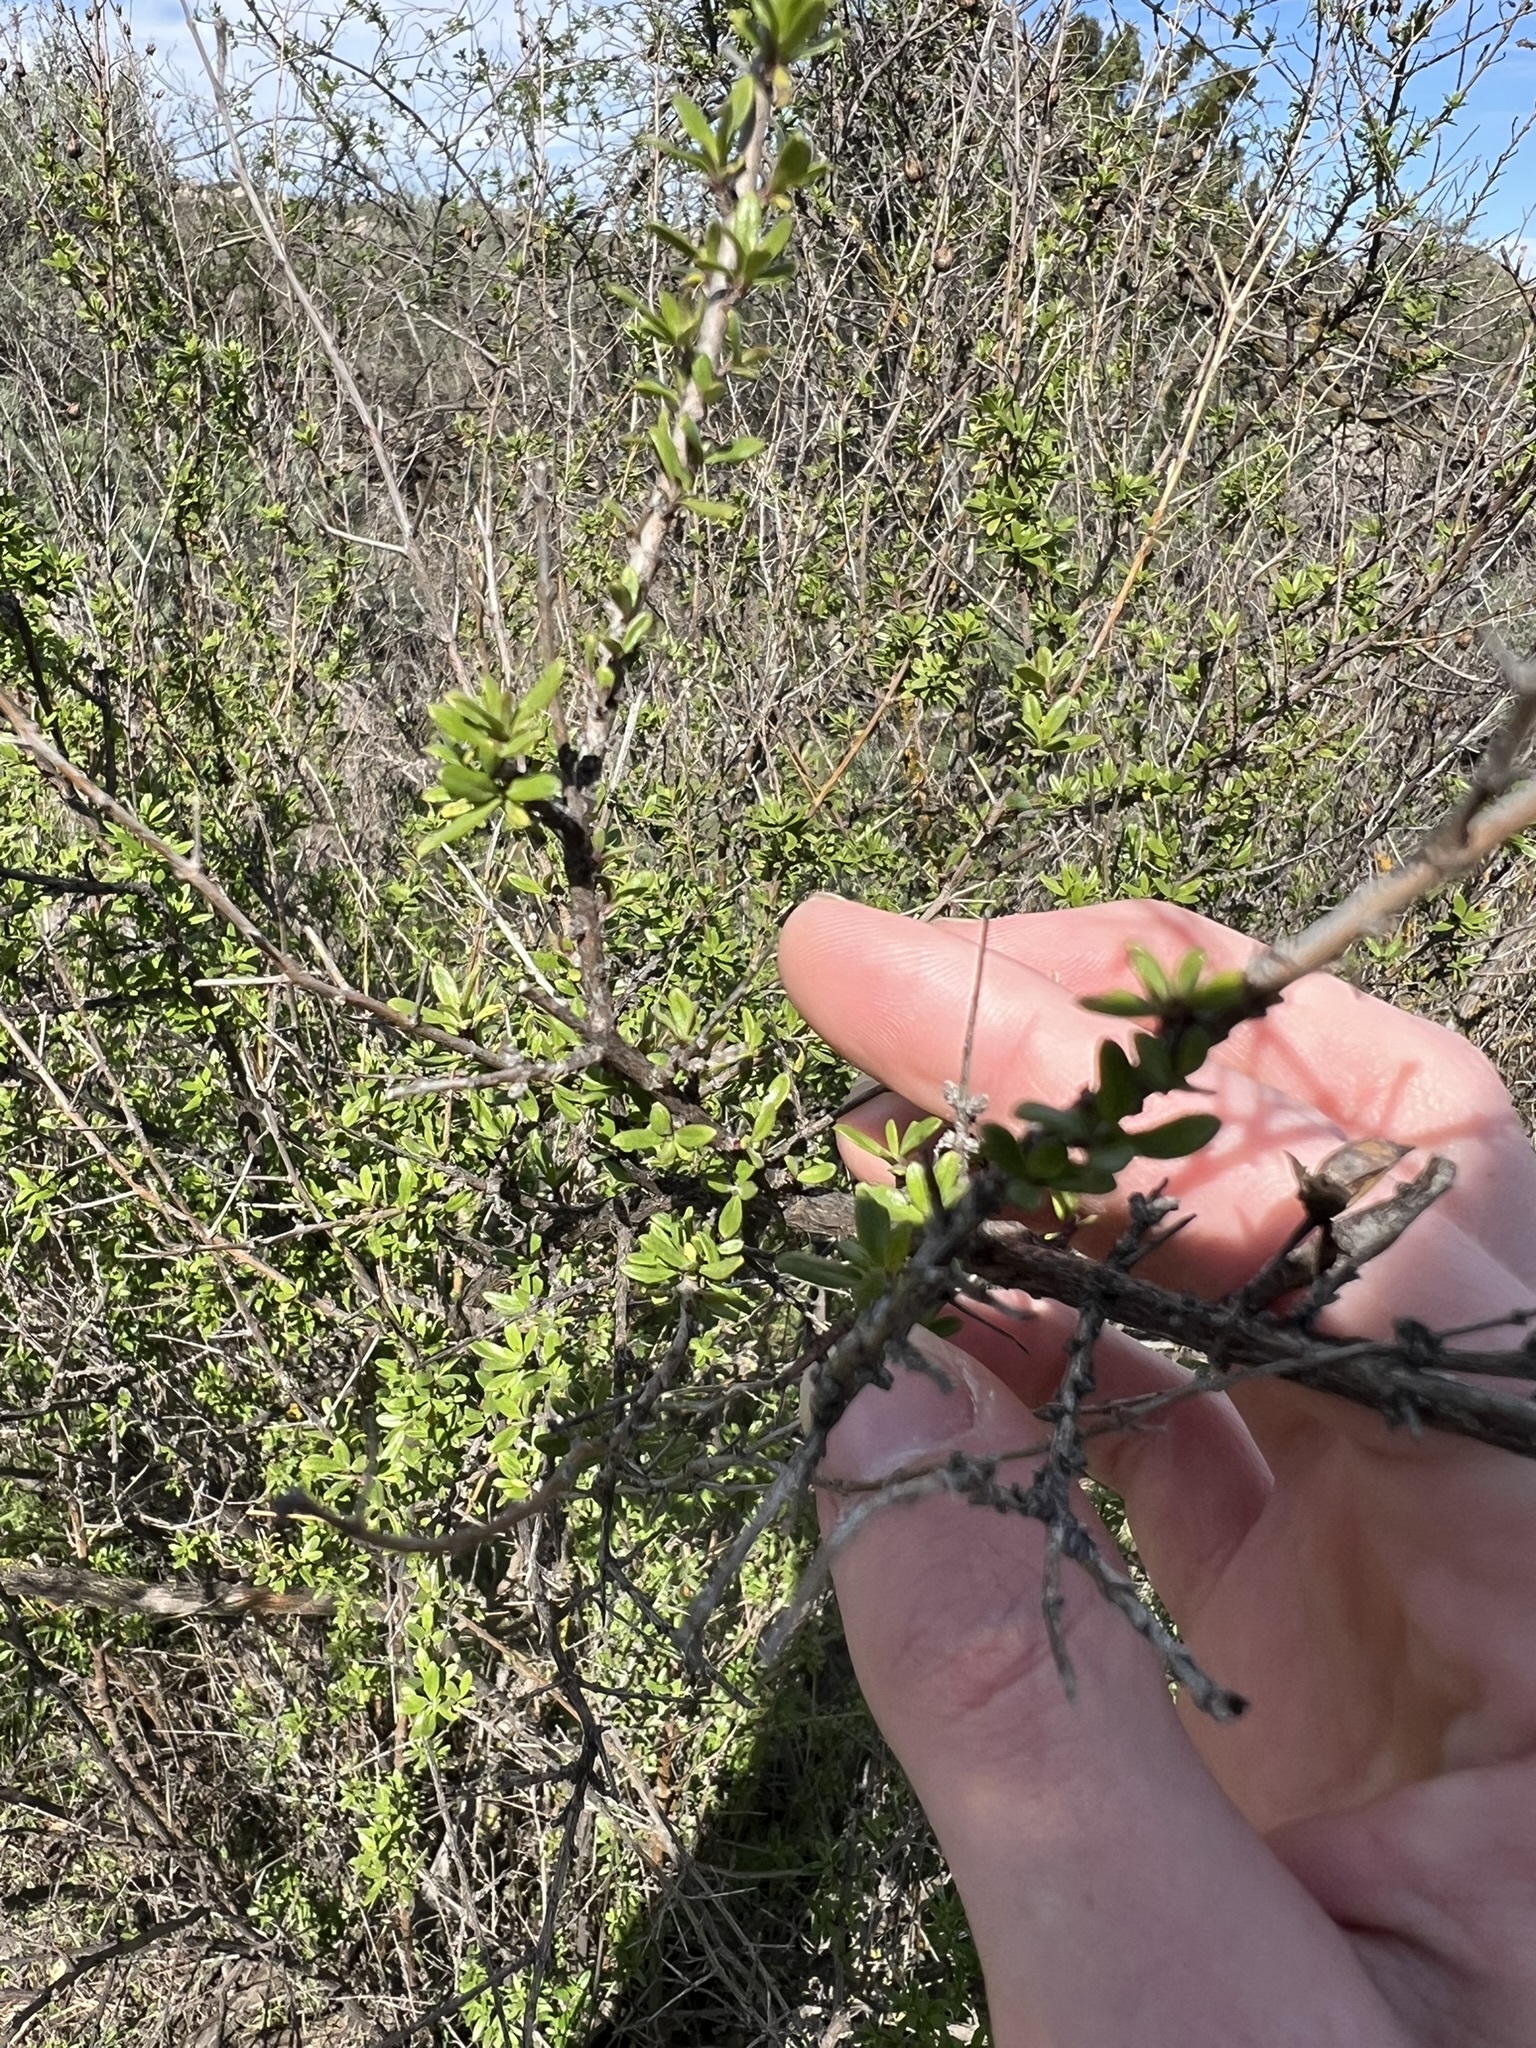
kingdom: Plantae
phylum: Tracheophyta
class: Magnoliopsida
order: Lamiales
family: Plantaginaceae
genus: Keckiella
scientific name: Keckiella antirrhinoides
